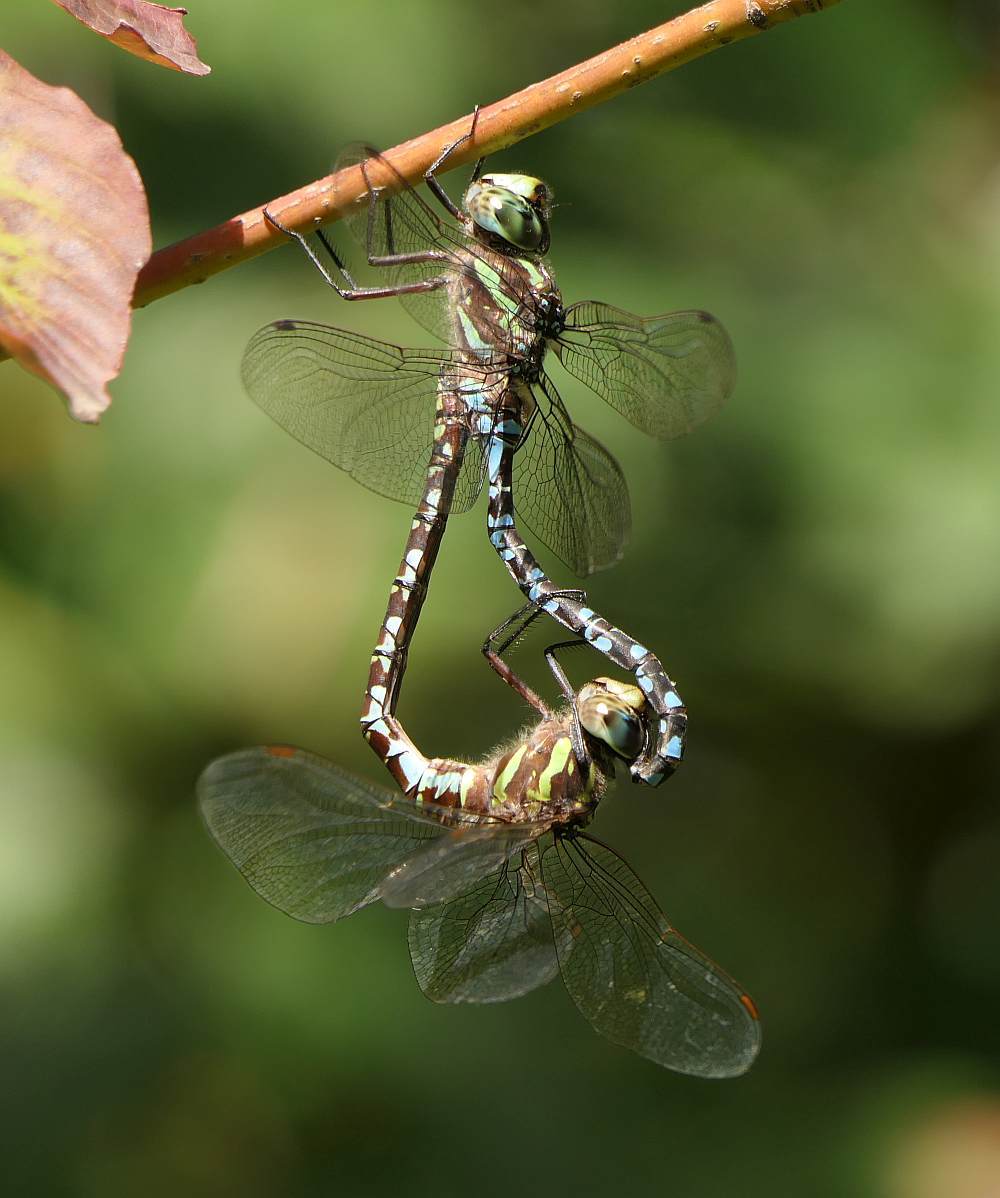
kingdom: Animalia
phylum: Arthropoda
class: Insecta
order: Odonata
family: Aeshnidae
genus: Aeshna
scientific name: Aeshna verticalis
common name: Green-striped darner
